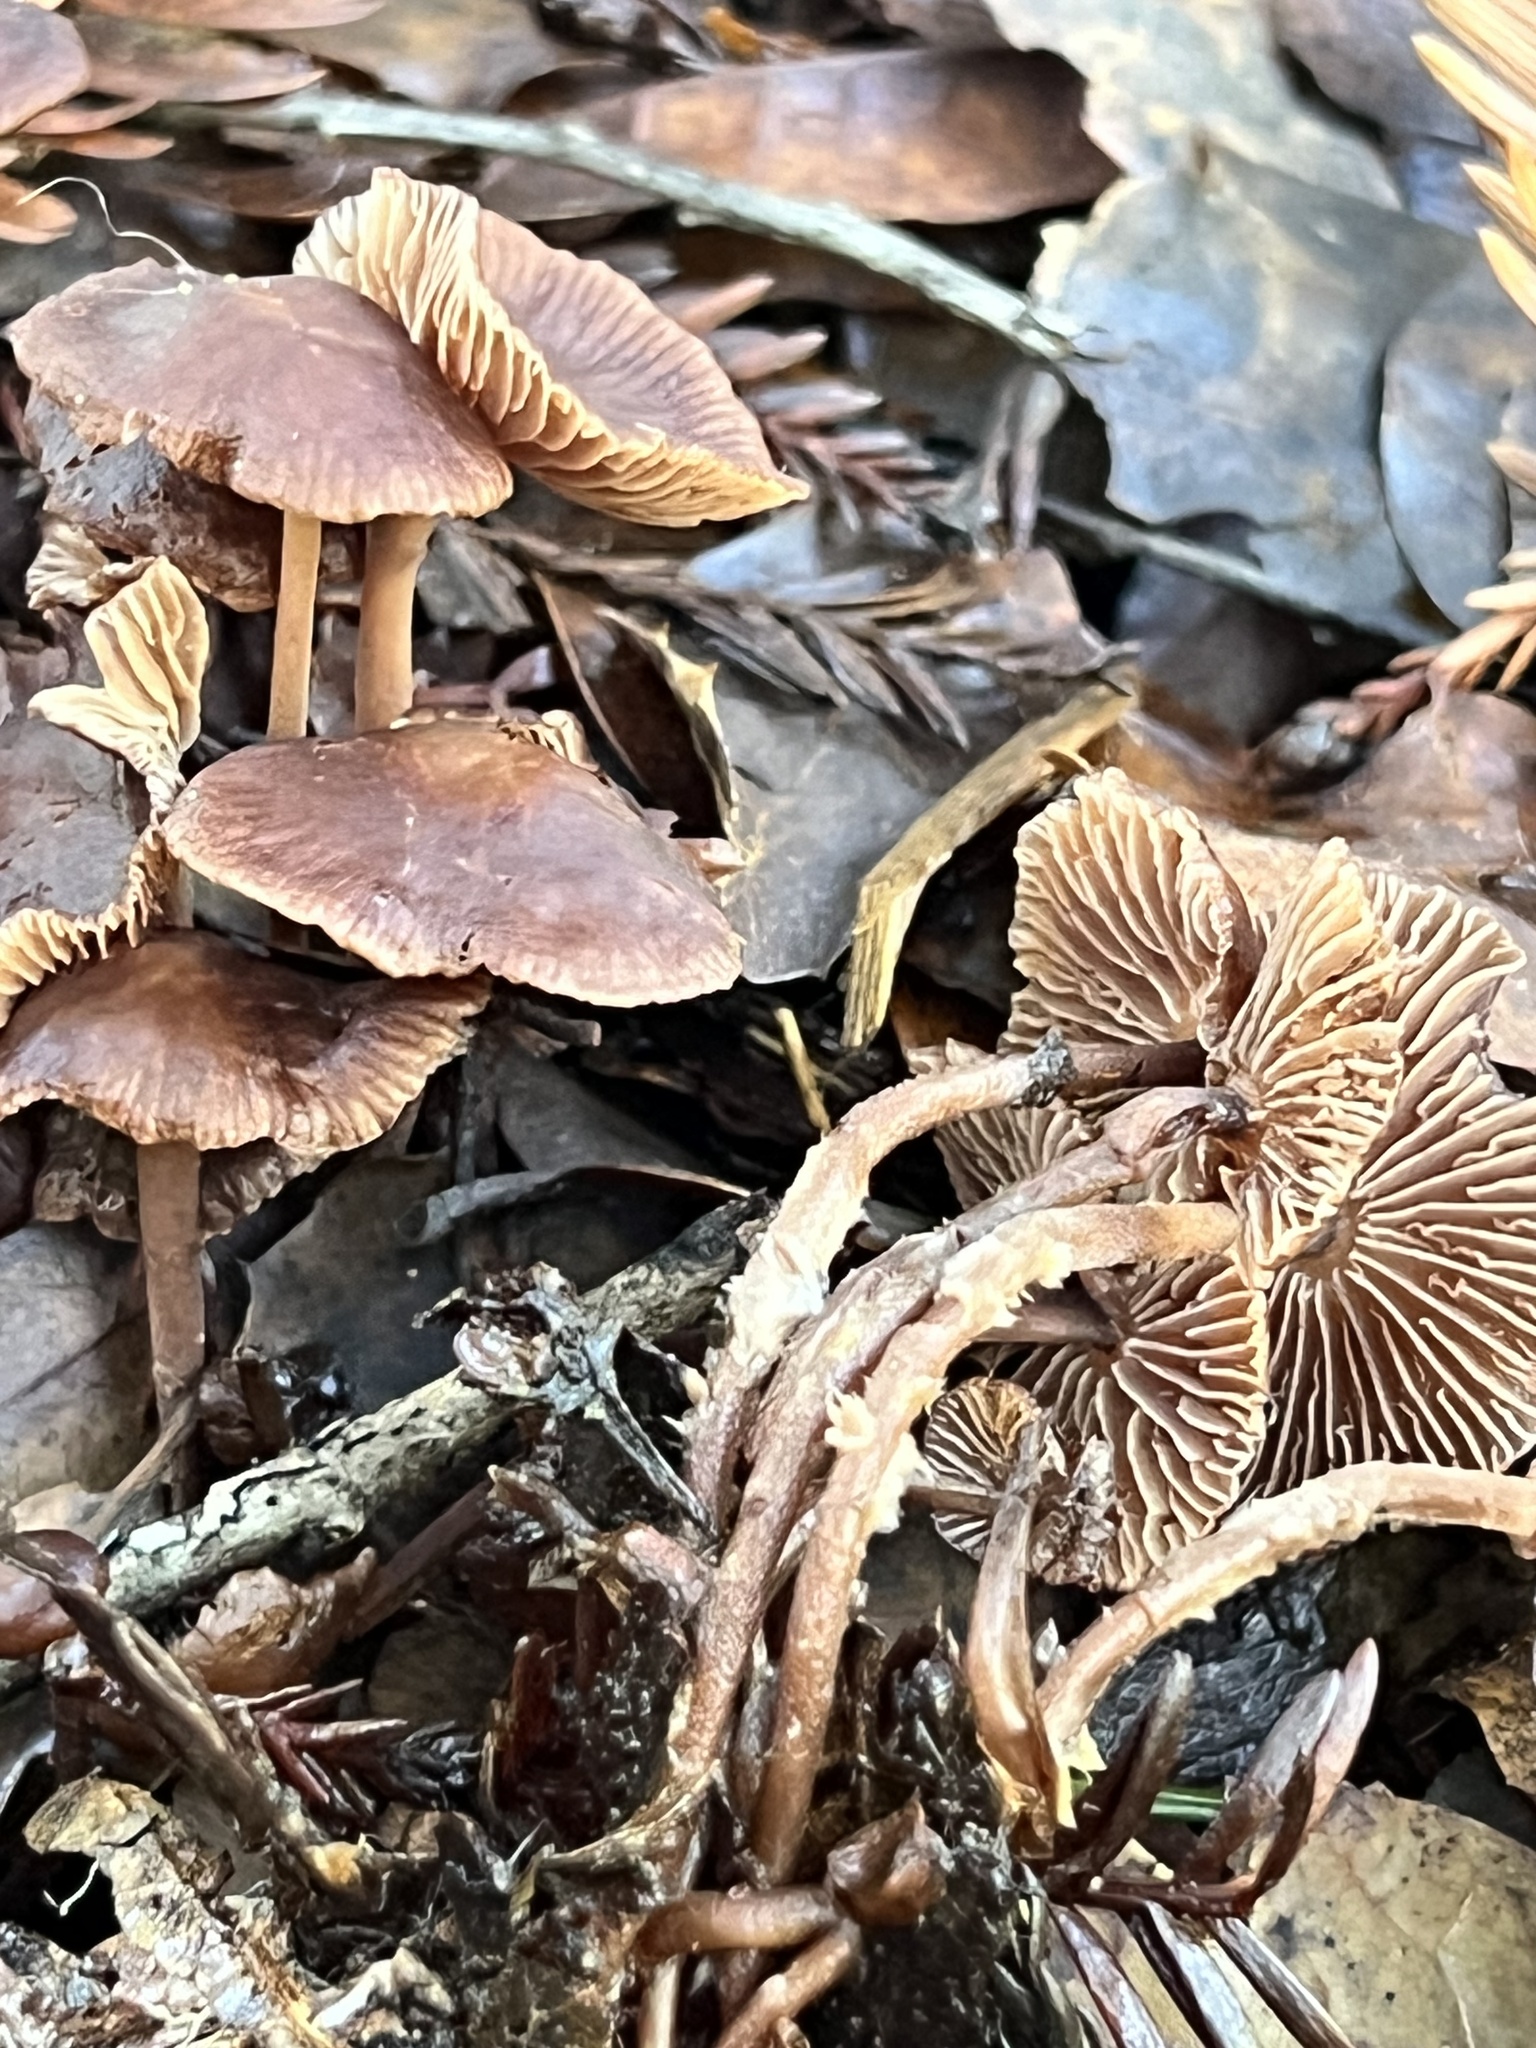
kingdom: Fungi
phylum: Basidiomycota
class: Agaricomycetes
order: Agaricales
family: Omphalotaceae
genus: Collybiopsis
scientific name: Collybiopsis villosipes
